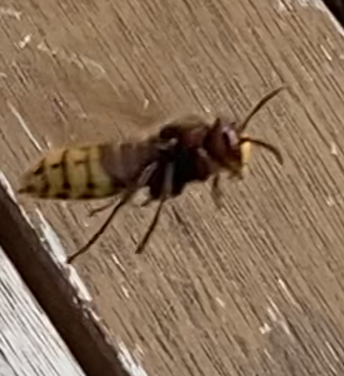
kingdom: Animalia
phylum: Arthropoda
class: Insecta
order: Hymenoptera
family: Vespidae
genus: Vespa
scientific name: Vespa crabro
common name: Hornet
